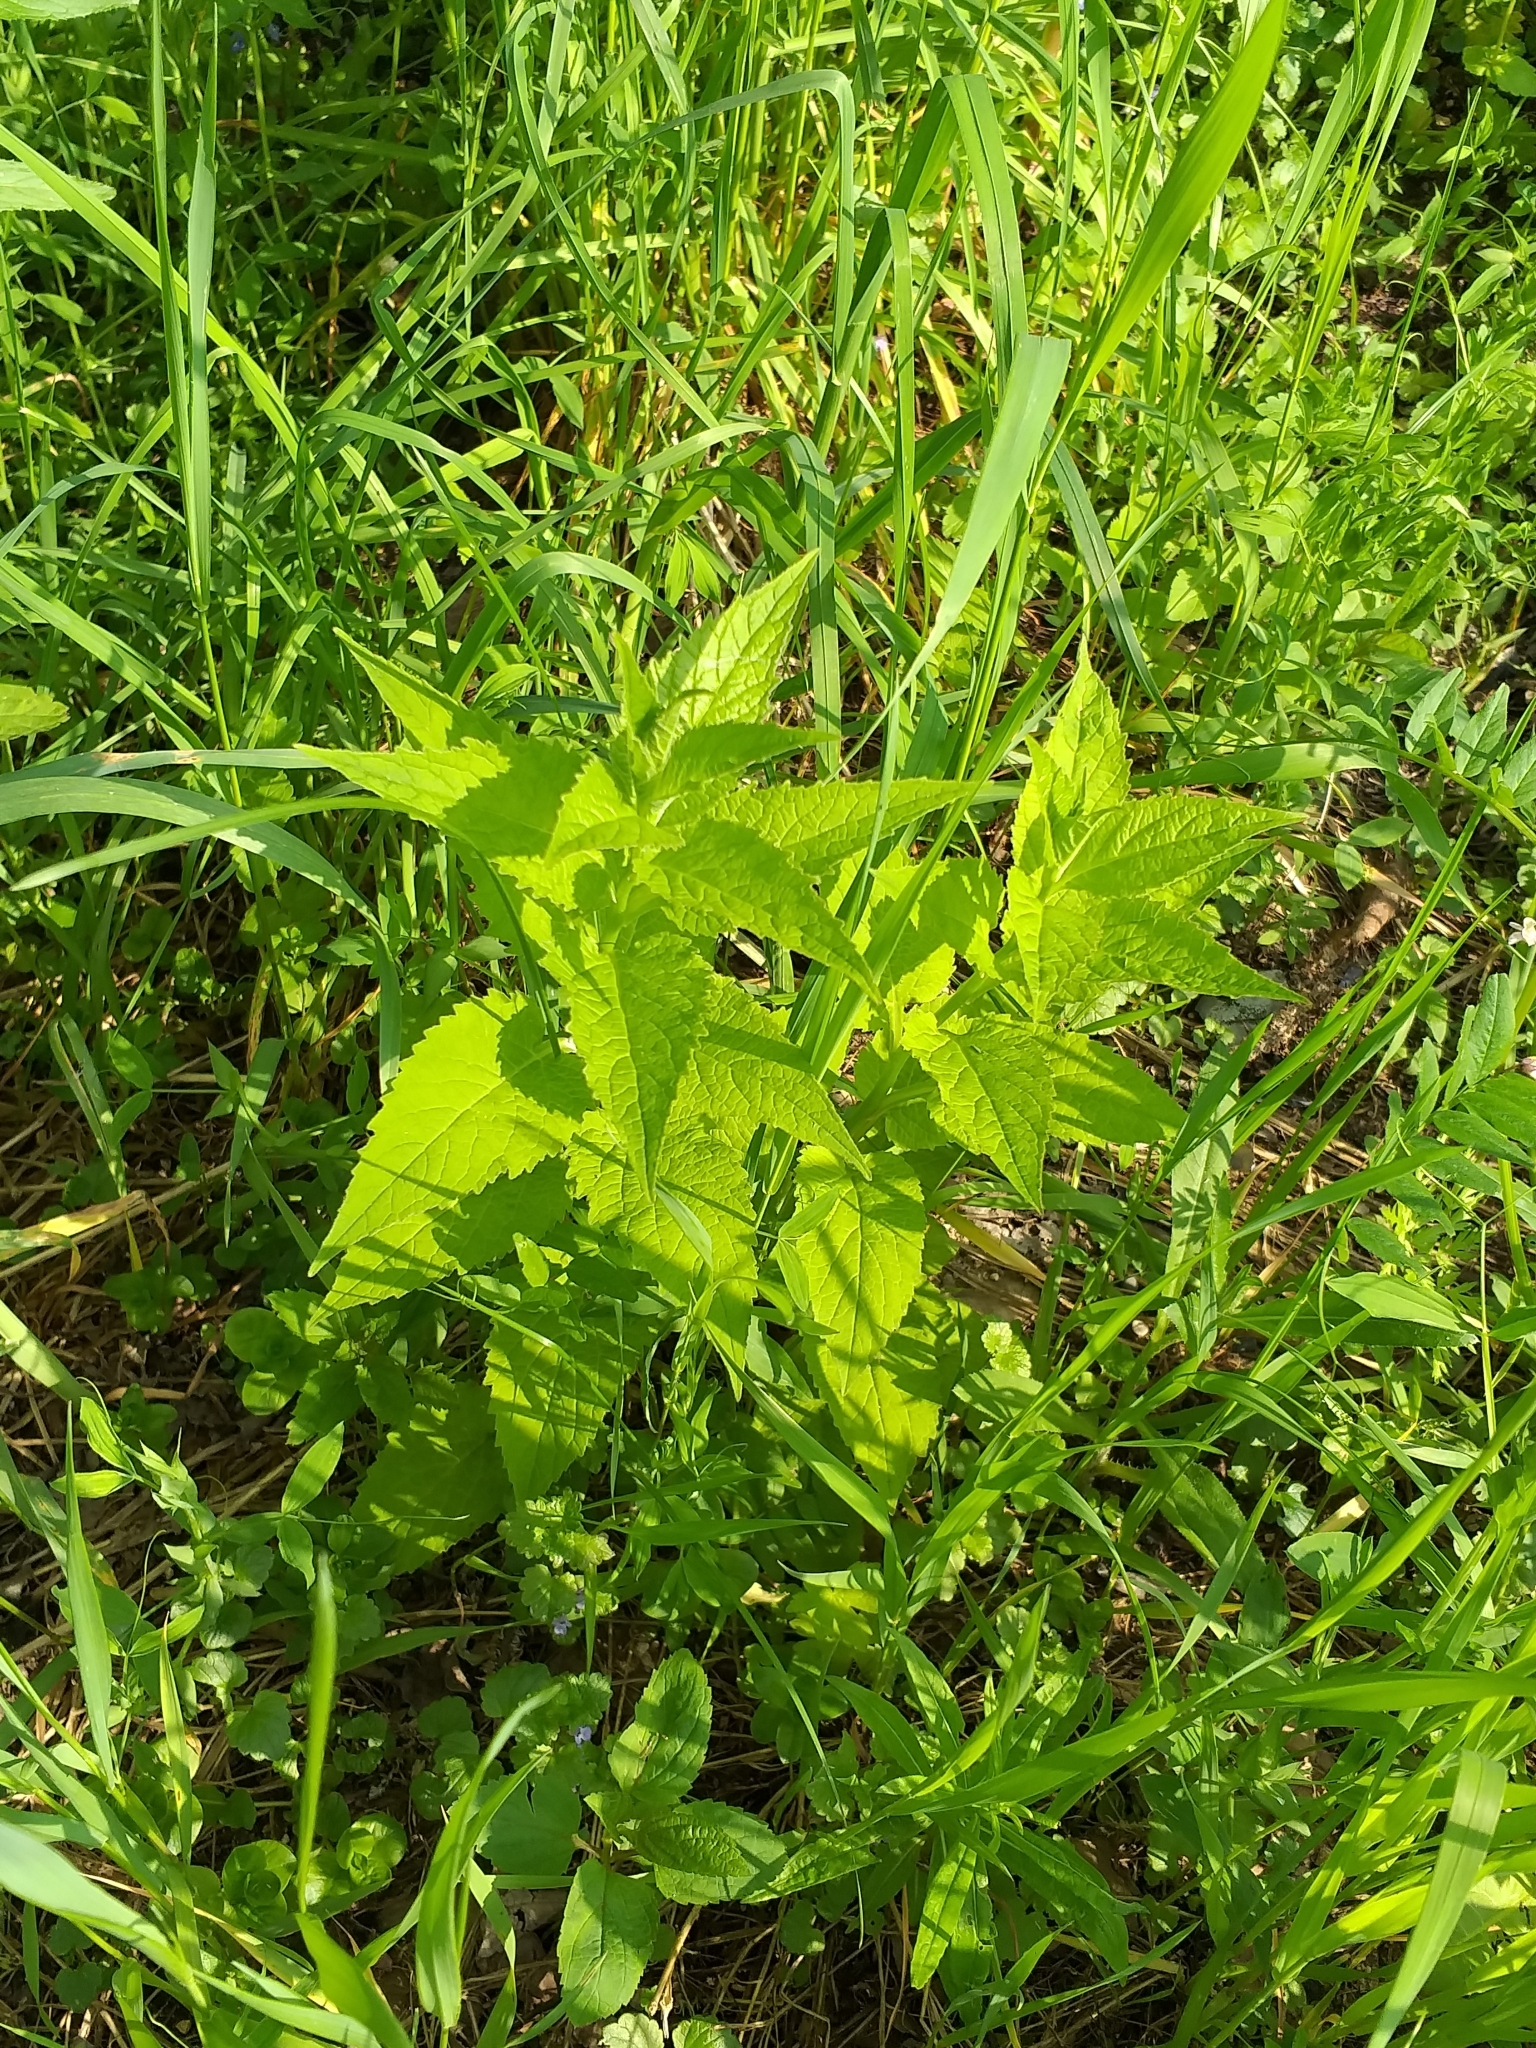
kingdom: Plantae
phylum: Tracheophyta
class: Magnoliopsida
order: Asterales
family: Campanulaceae
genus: Campanula
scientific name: Campanula latifolia
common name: Giant bellflower
